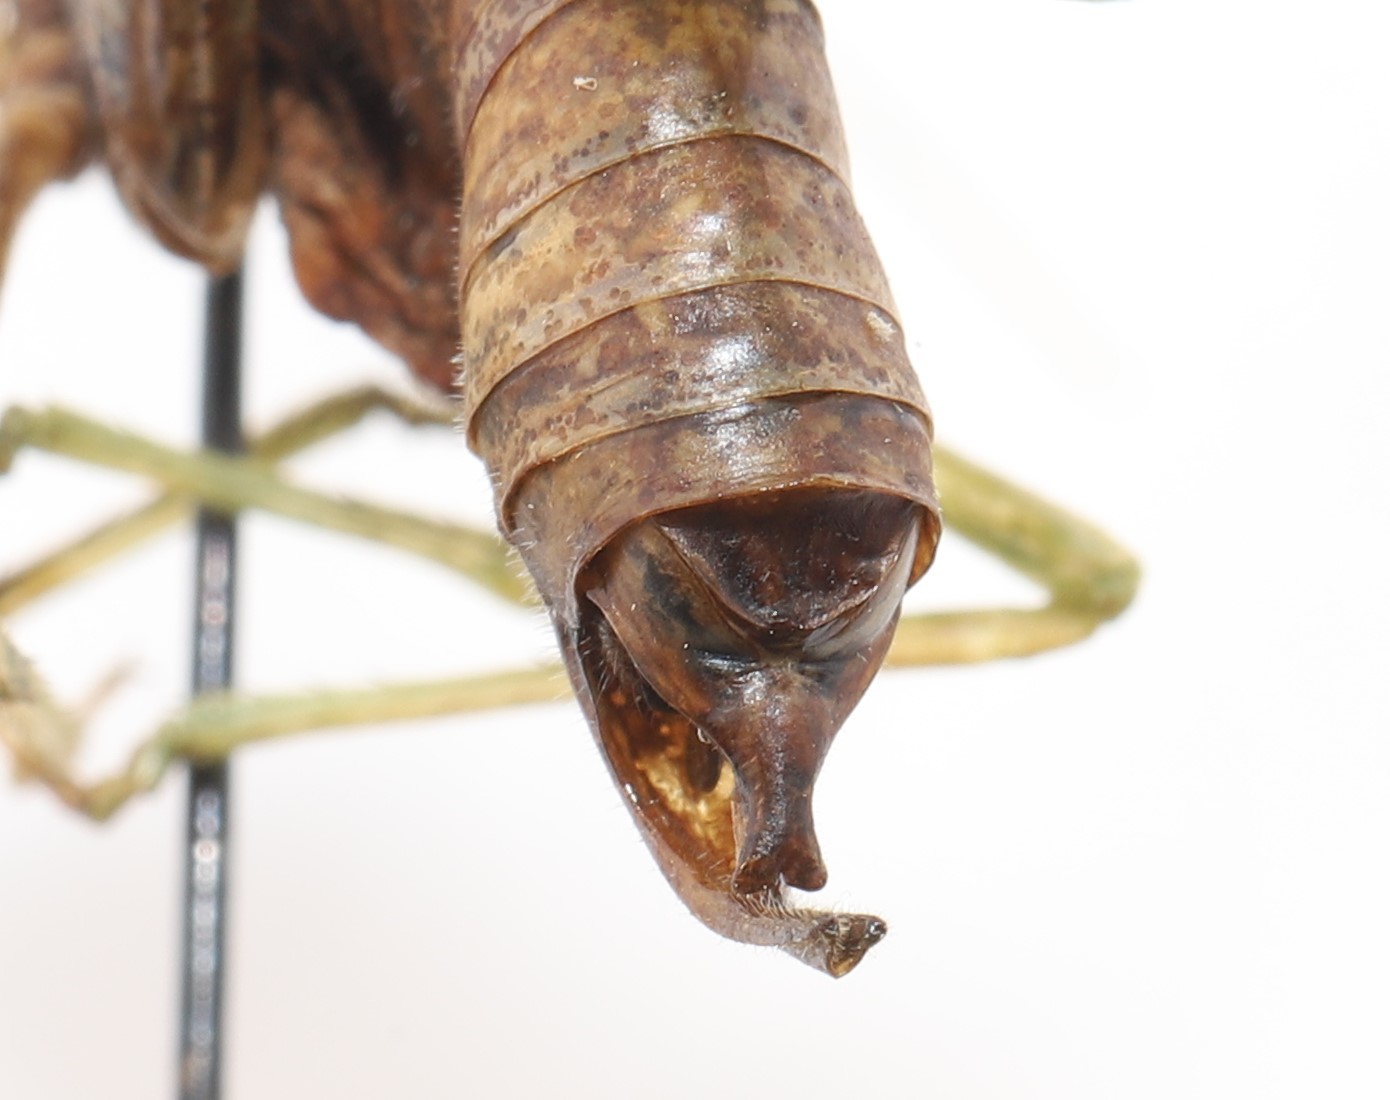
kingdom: Animalia
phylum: Arthropoda
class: Insecta
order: Orthoptera
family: Tettigoniidae
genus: Scudderia
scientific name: Scudderia pistillata
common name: Broad-winged bush-katydid
